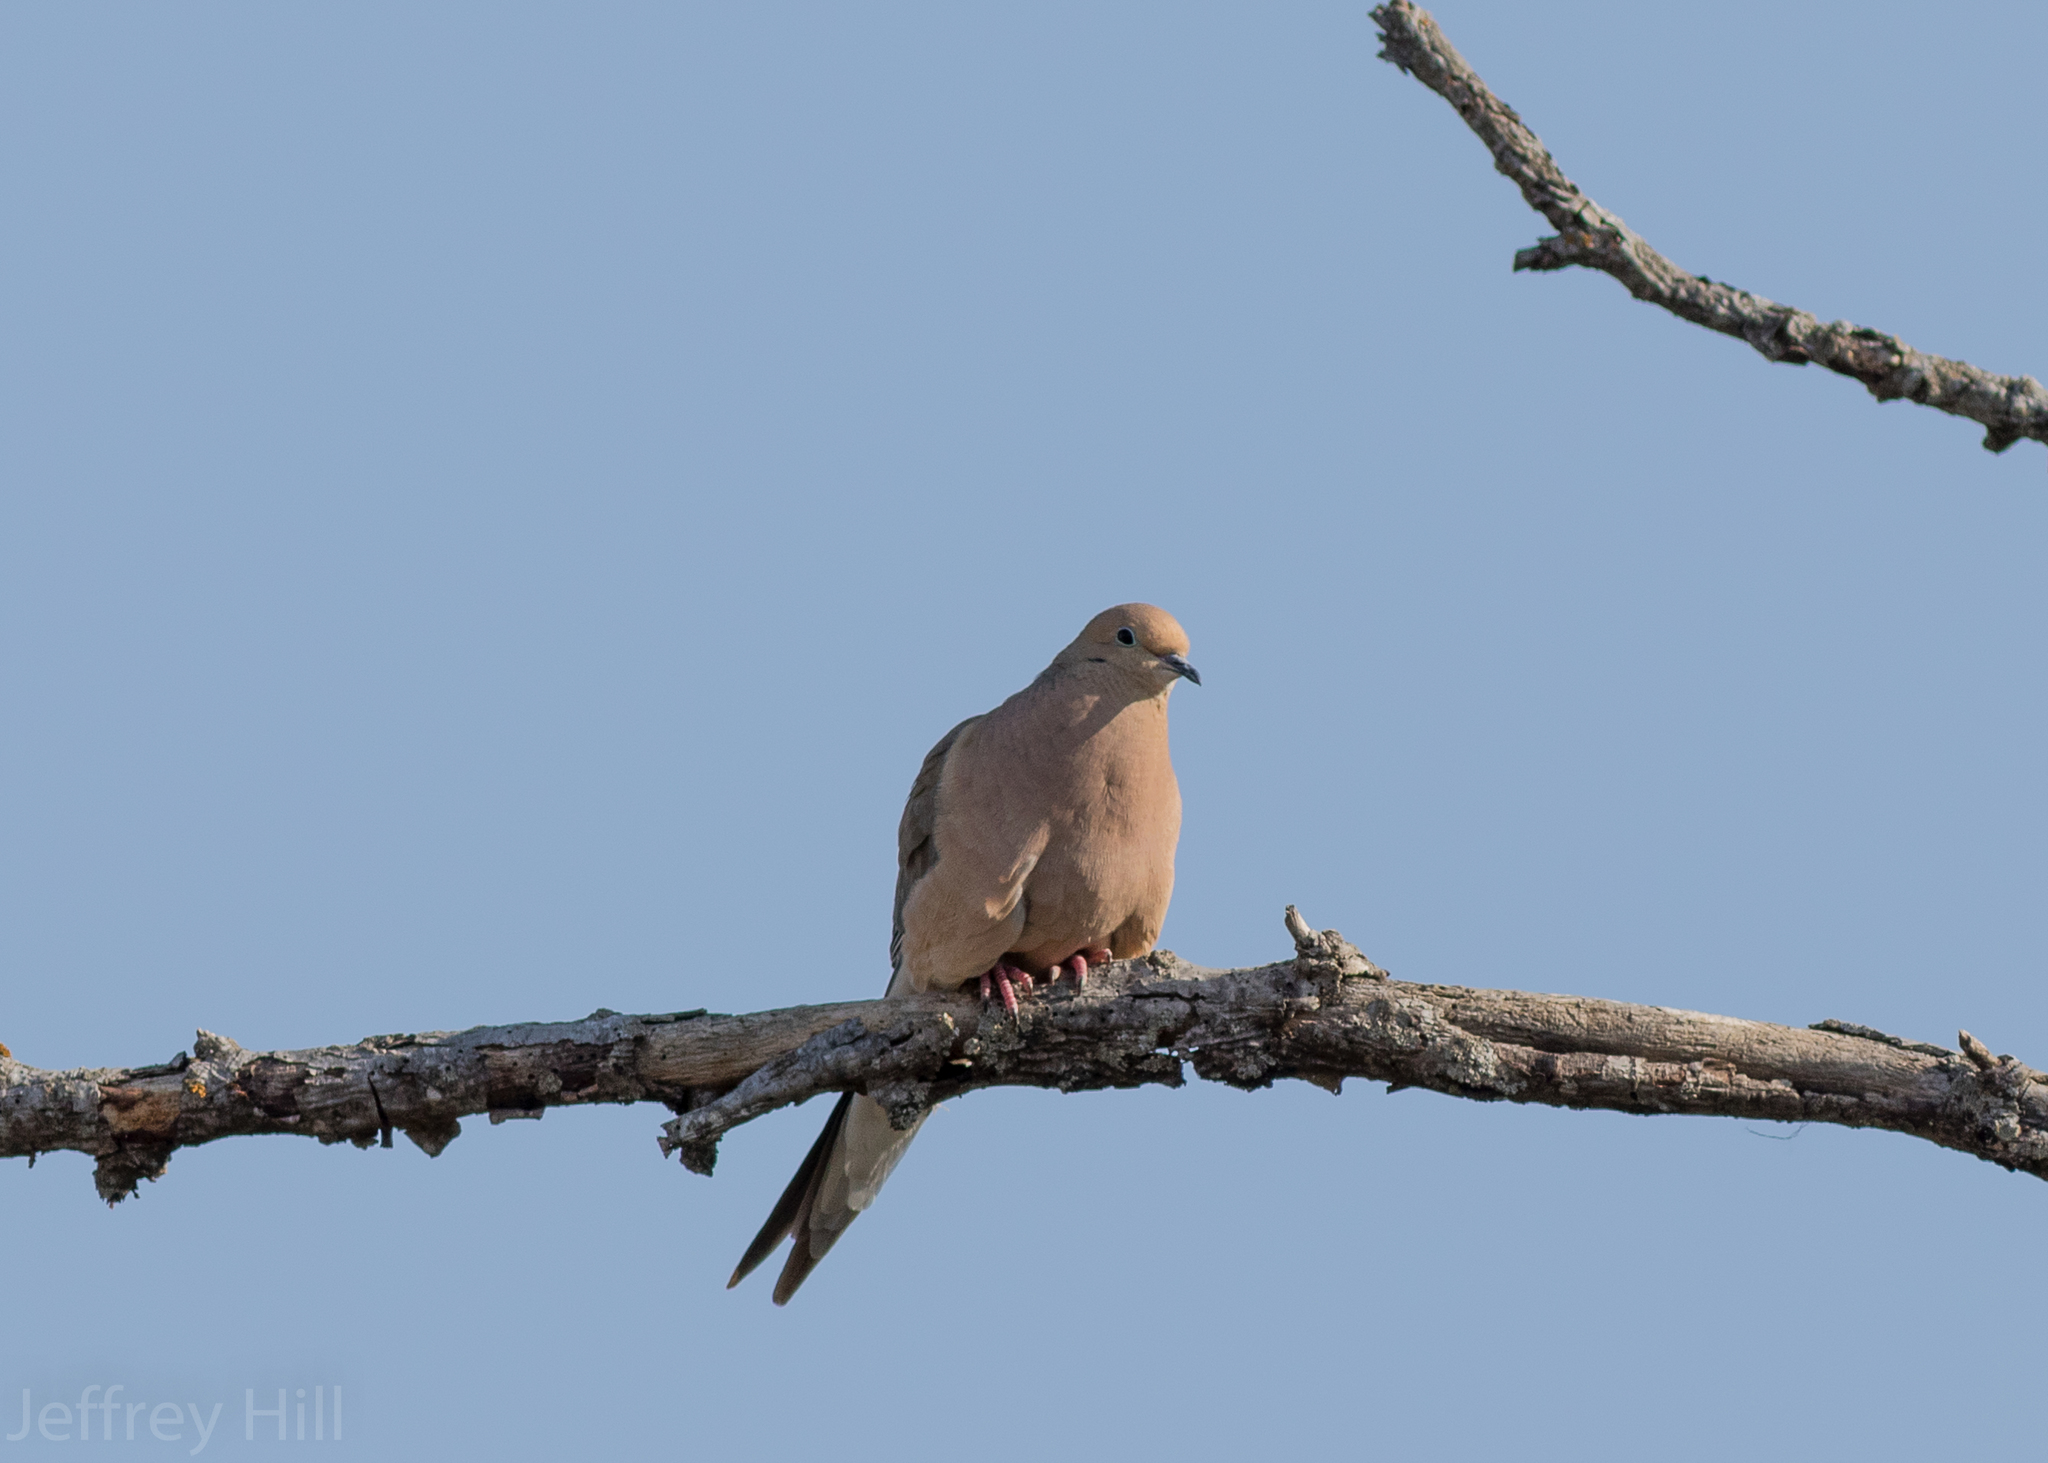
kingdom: Animalia
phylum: Chordata
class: Aves
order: Columbiformes
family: Columbidae
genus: Zenaida
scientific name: Zenaida macroura
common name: Mourning dove
